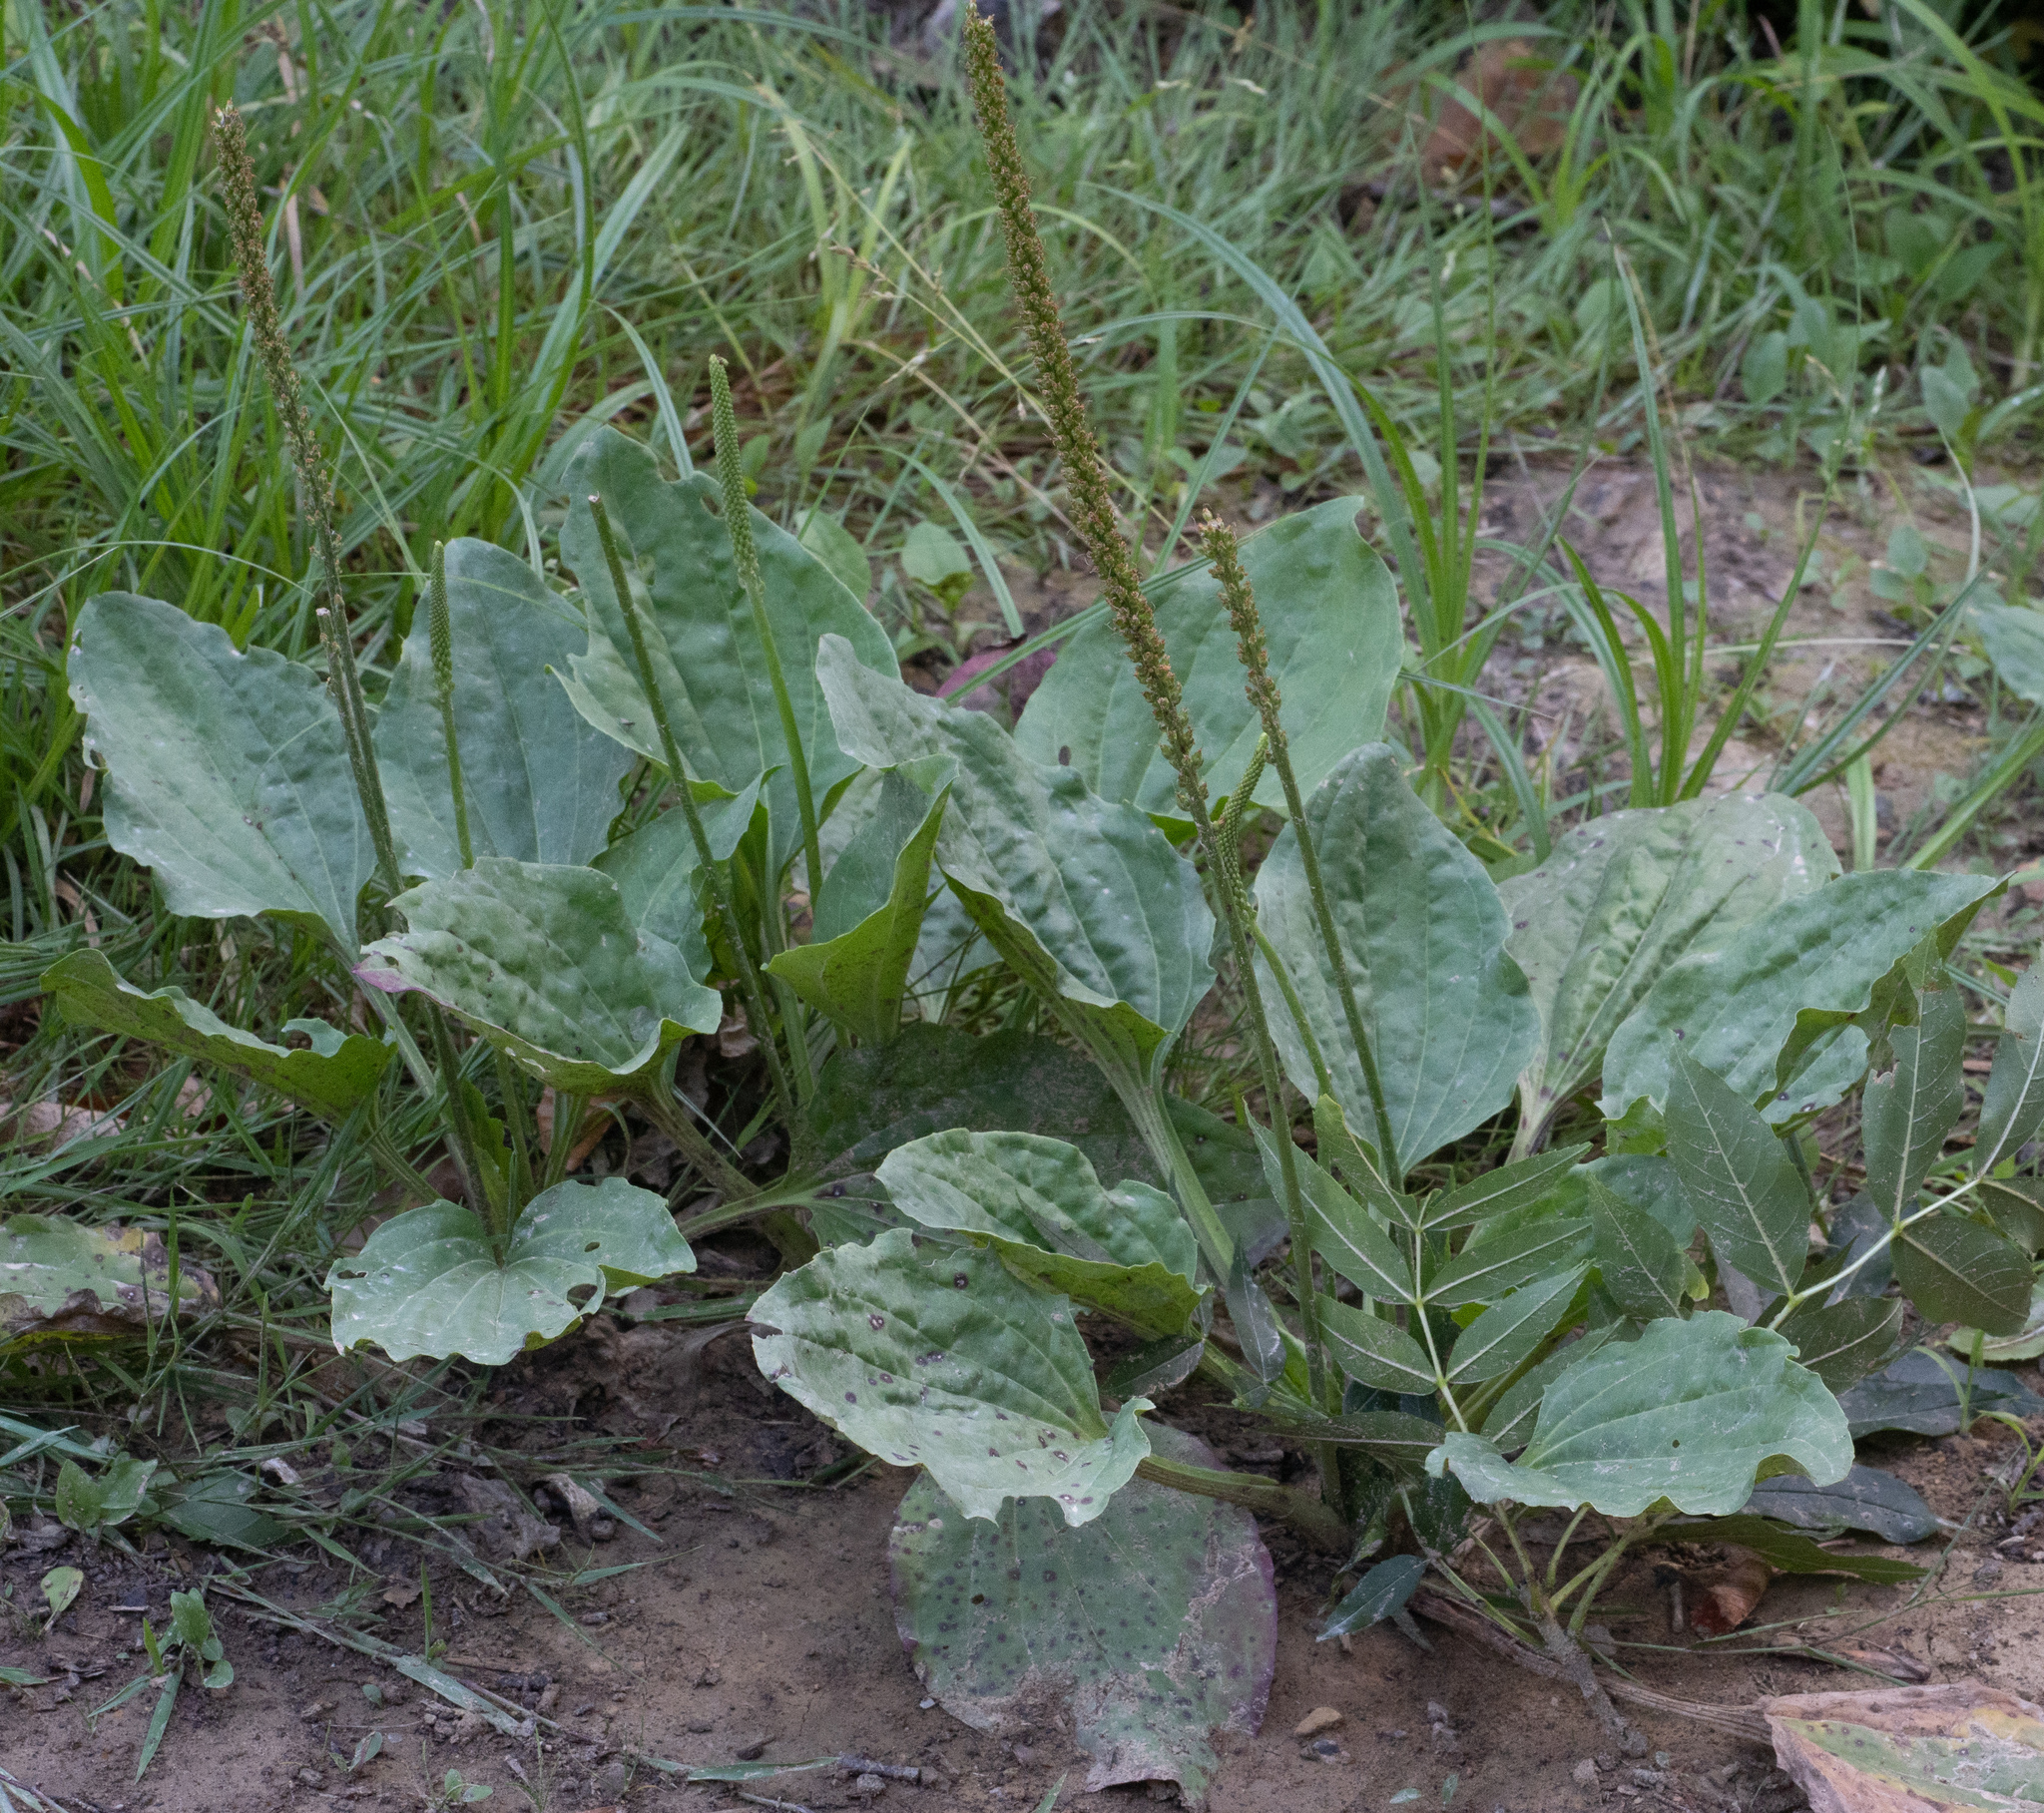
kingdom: Plantae
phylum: Tracheophyta
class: Magnoliopsida
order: Lamiales
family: Plantaginaceae
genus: Plantago
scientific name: Plantago major
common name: Common plantain
